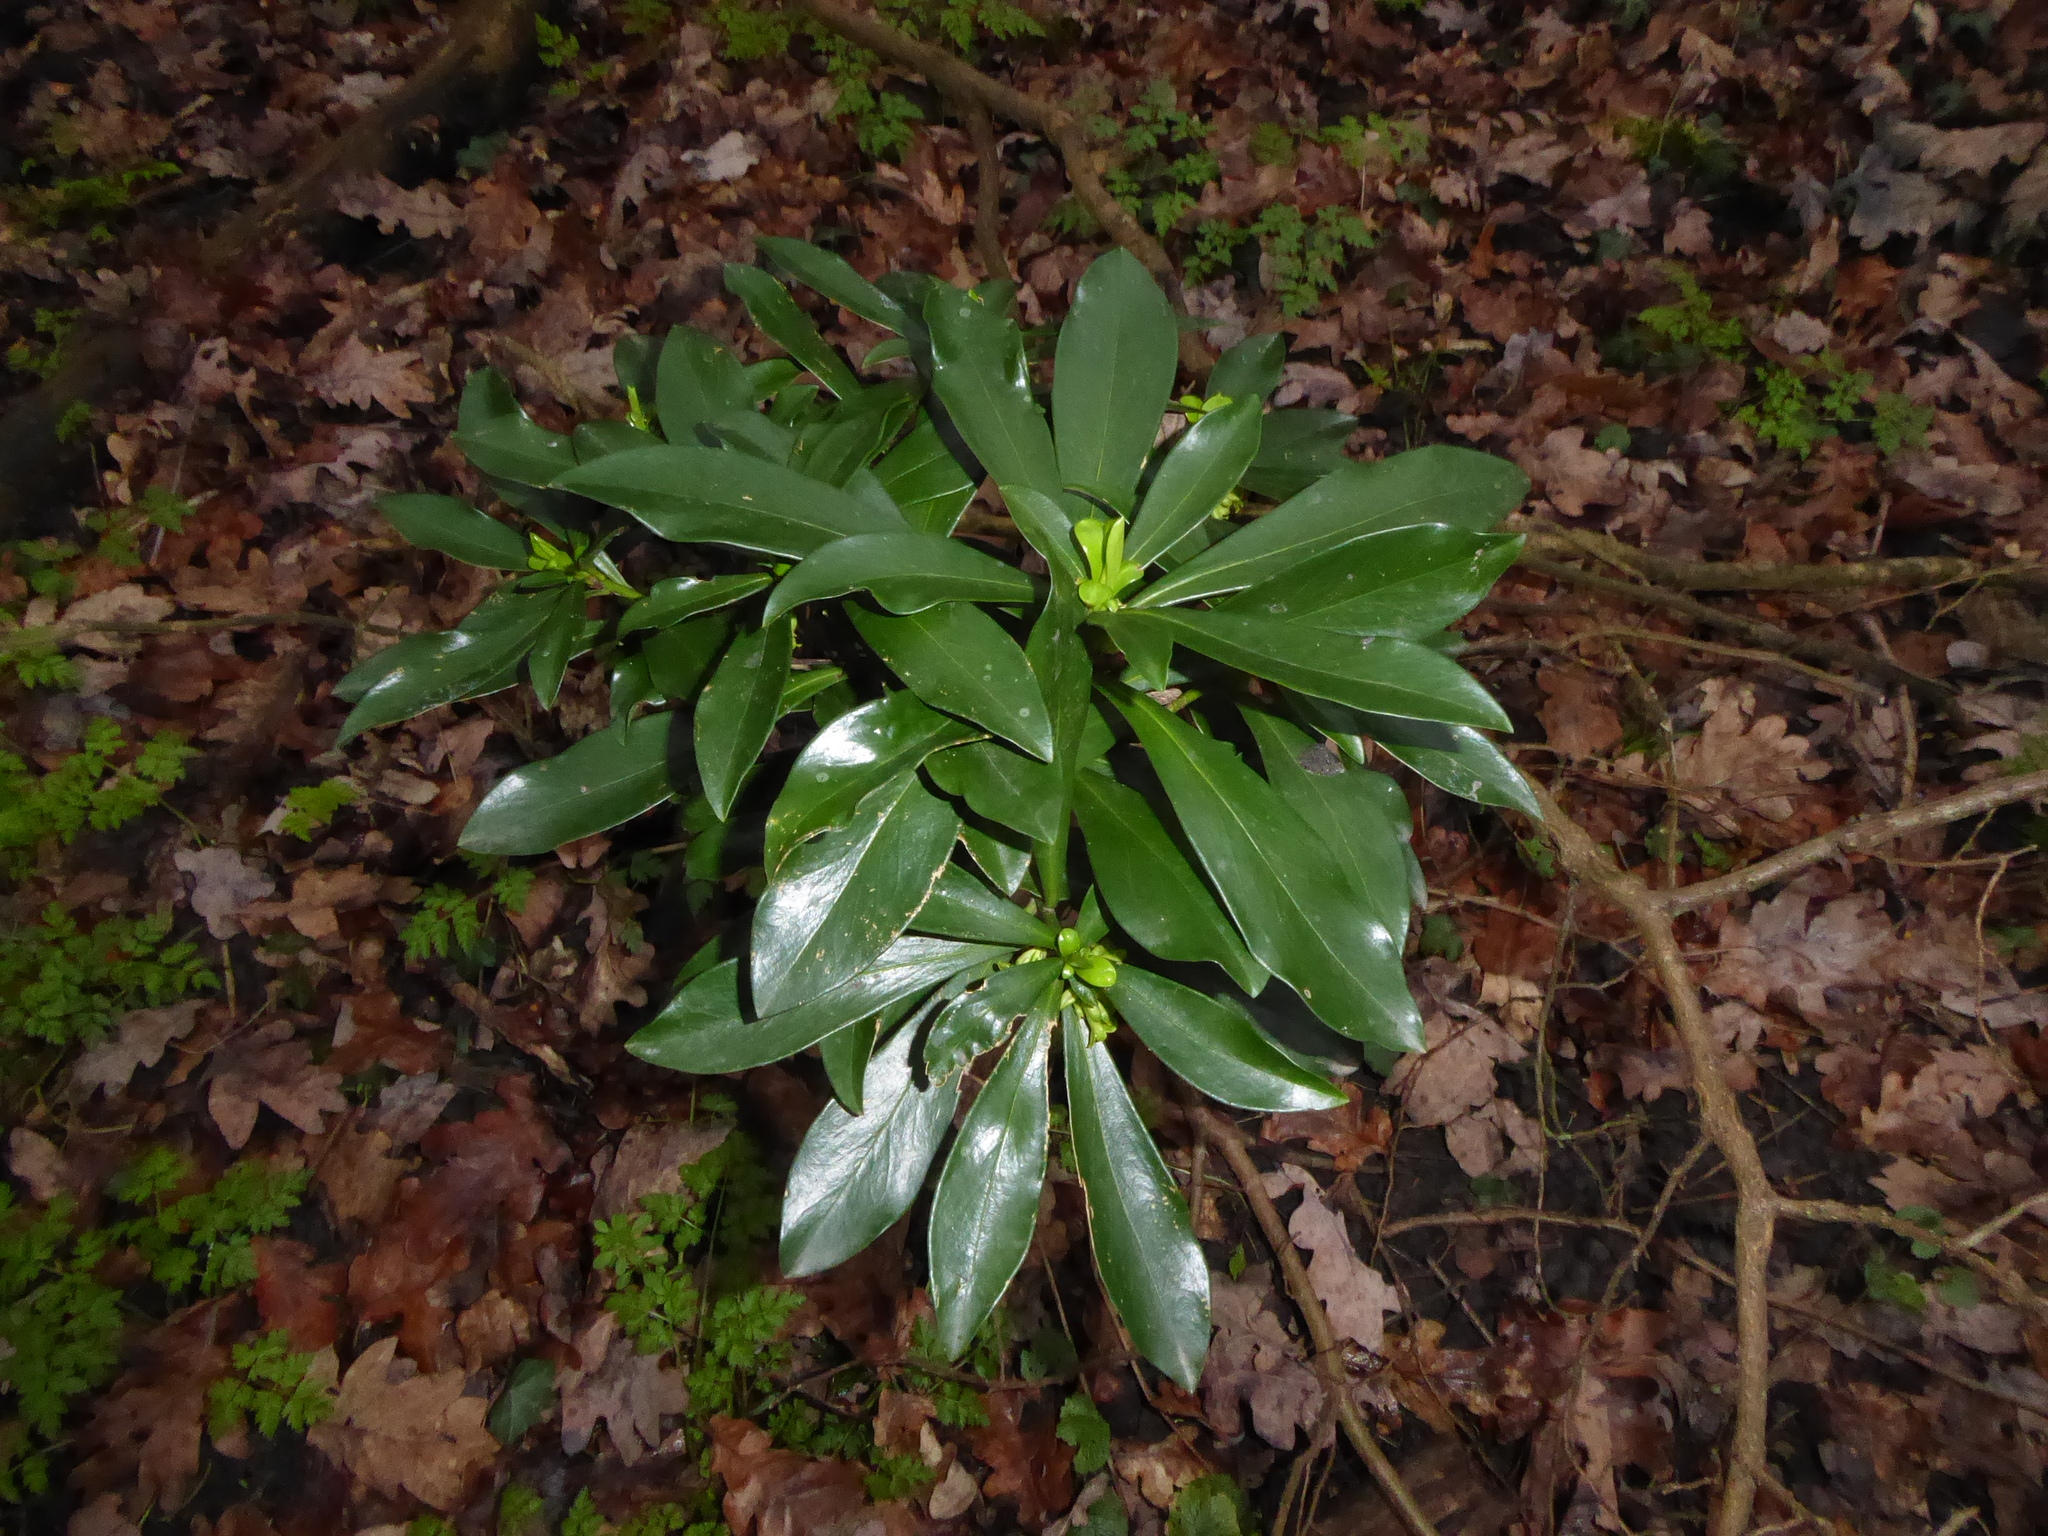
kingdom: Plantae
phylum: Tracheophyta
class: Magnoliopsida
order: Malvales
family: Thymelaeaceae
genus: Daphne
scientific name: Daphne laureola
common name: Spurge-laurel
